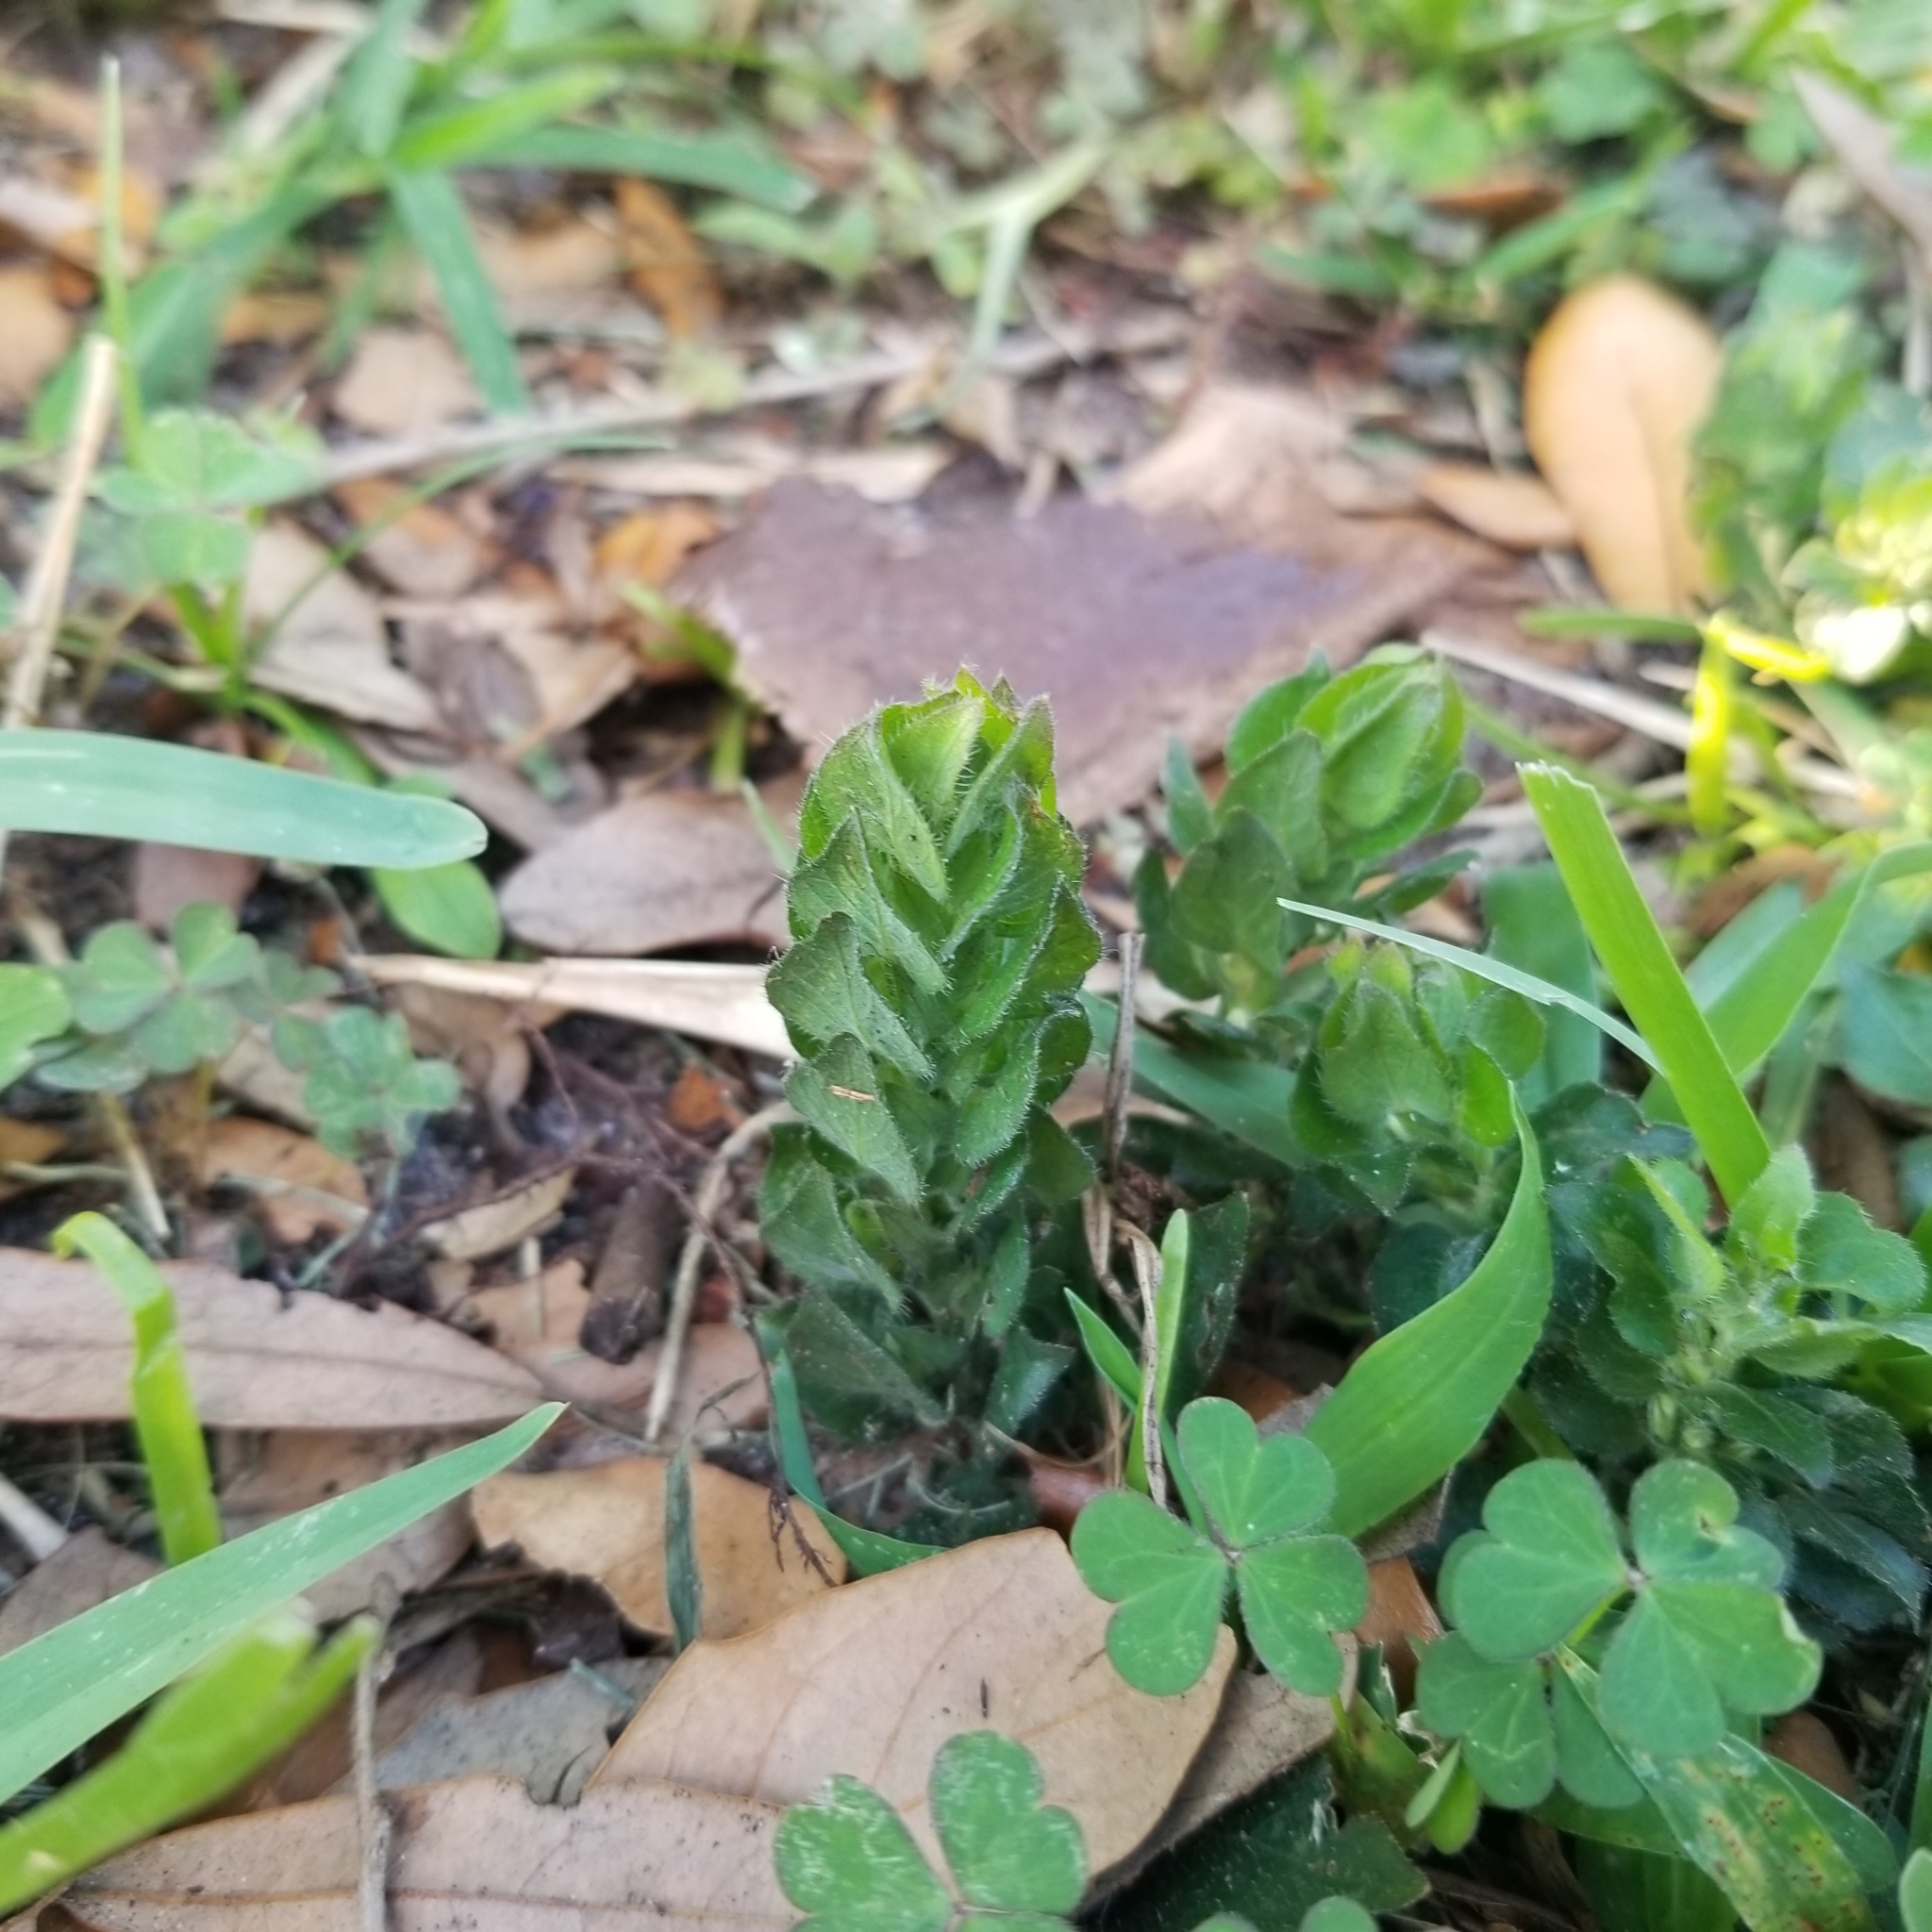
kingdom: Plantae
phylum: Tracheophyta
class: Magnoliopsida
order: Lamiales
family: Acanthaceae
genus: Ruellia
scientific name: Ruellia blechum
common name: Browne's blechum
